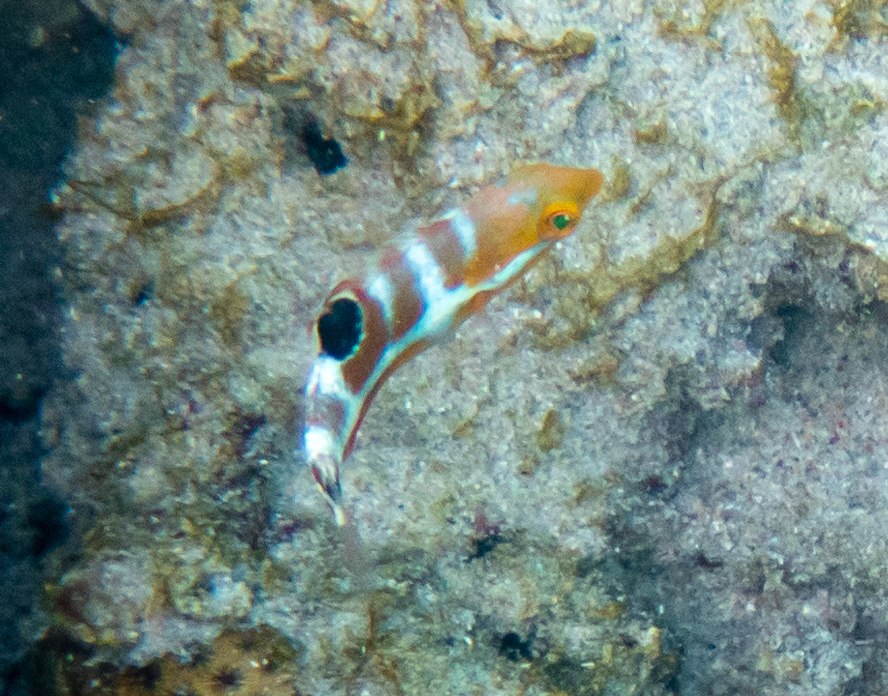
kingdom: Animalia
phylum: Chordata
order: Perciformes
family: Labridae
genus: Halichoeres
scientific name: Halichoeres radiatus
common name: Puddingwife
